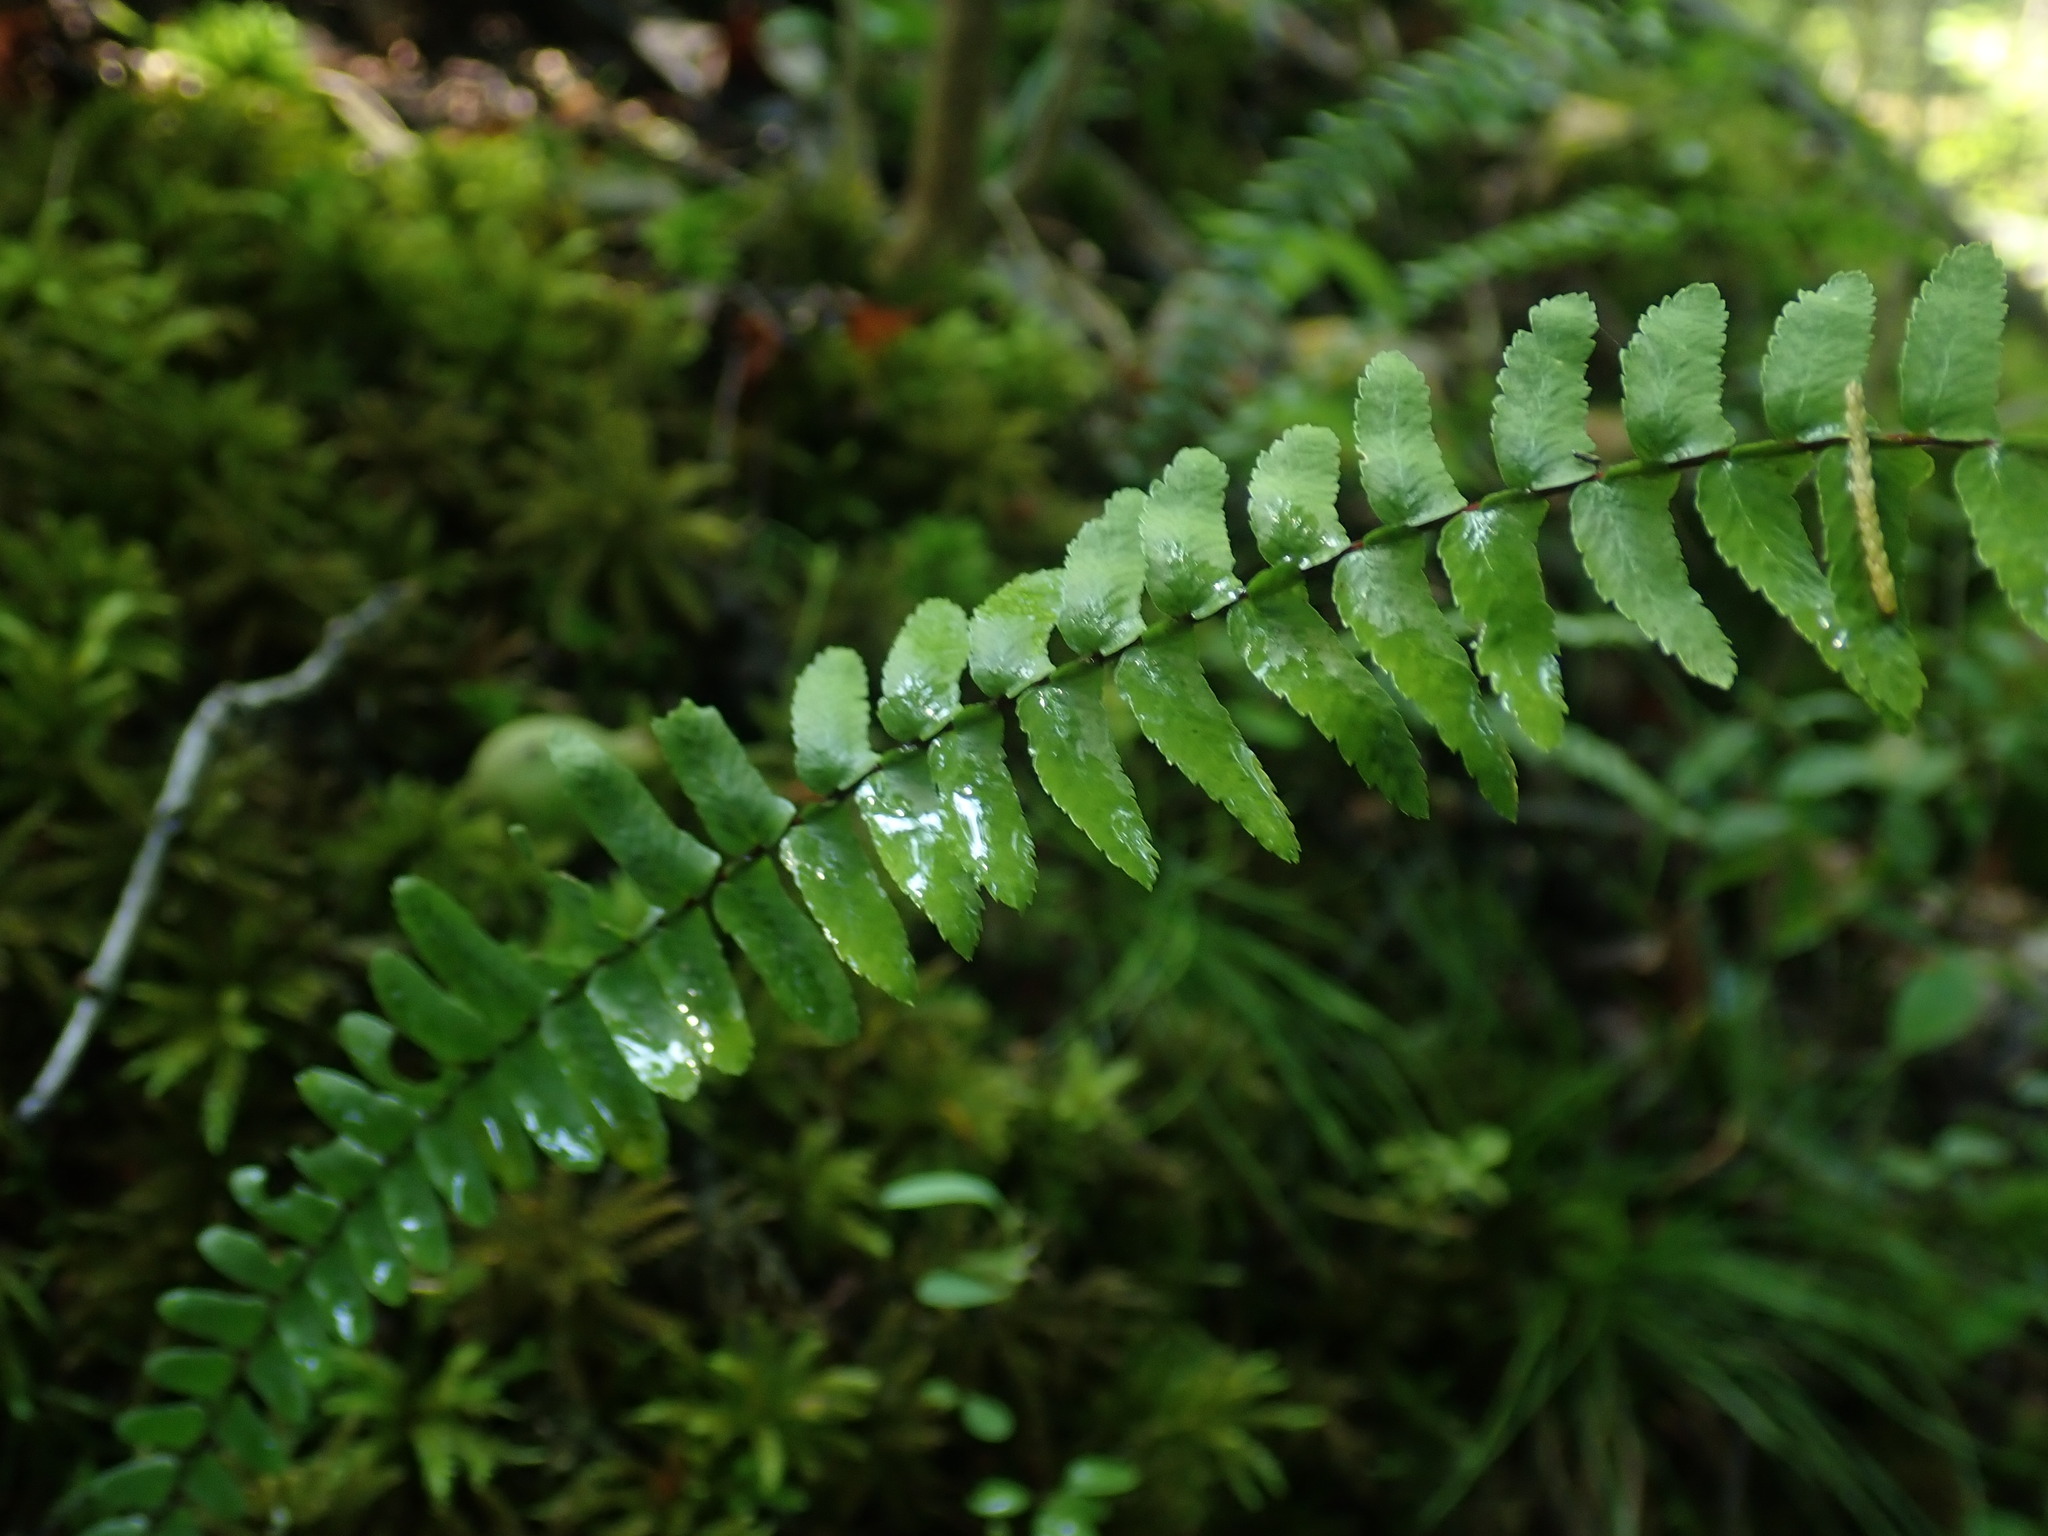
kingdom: Plantae
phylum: Tracheophyta
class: Polypodiopsida
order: Polypodiales
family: Aspleniaceae
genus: Asplenium
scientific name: Asplenium platyneuron
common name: Ebony spleenwort
